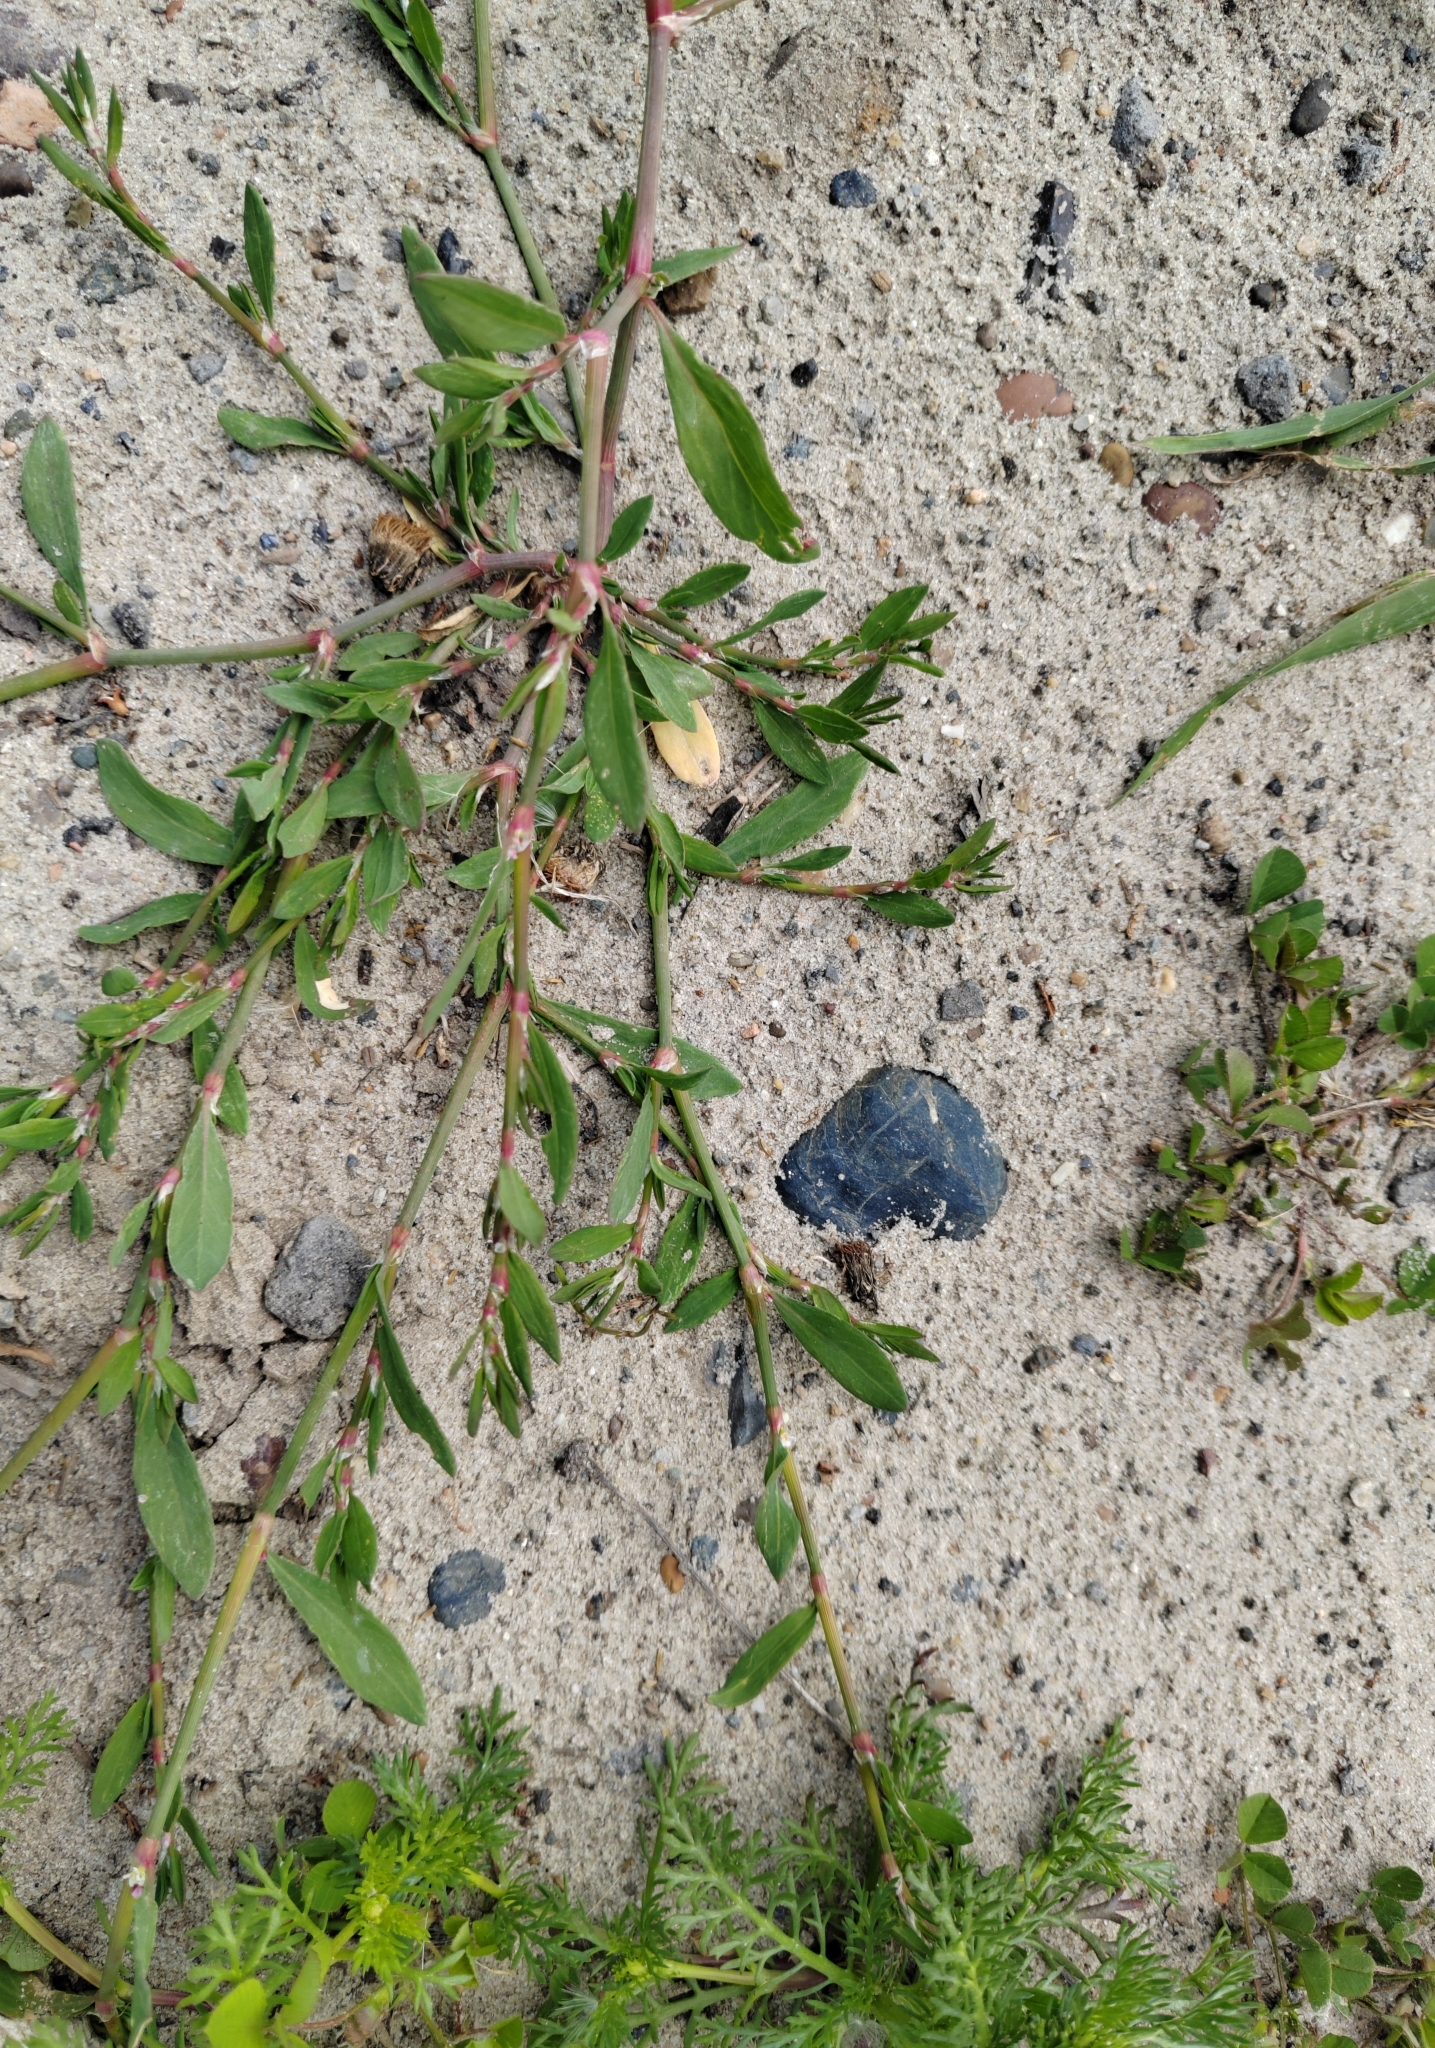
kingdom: Plantae
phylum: Tracheophyta
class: Magnoliopsida
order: Caryophyllales
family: Polygonaceae
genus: Polygonum
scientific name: Polygonum
